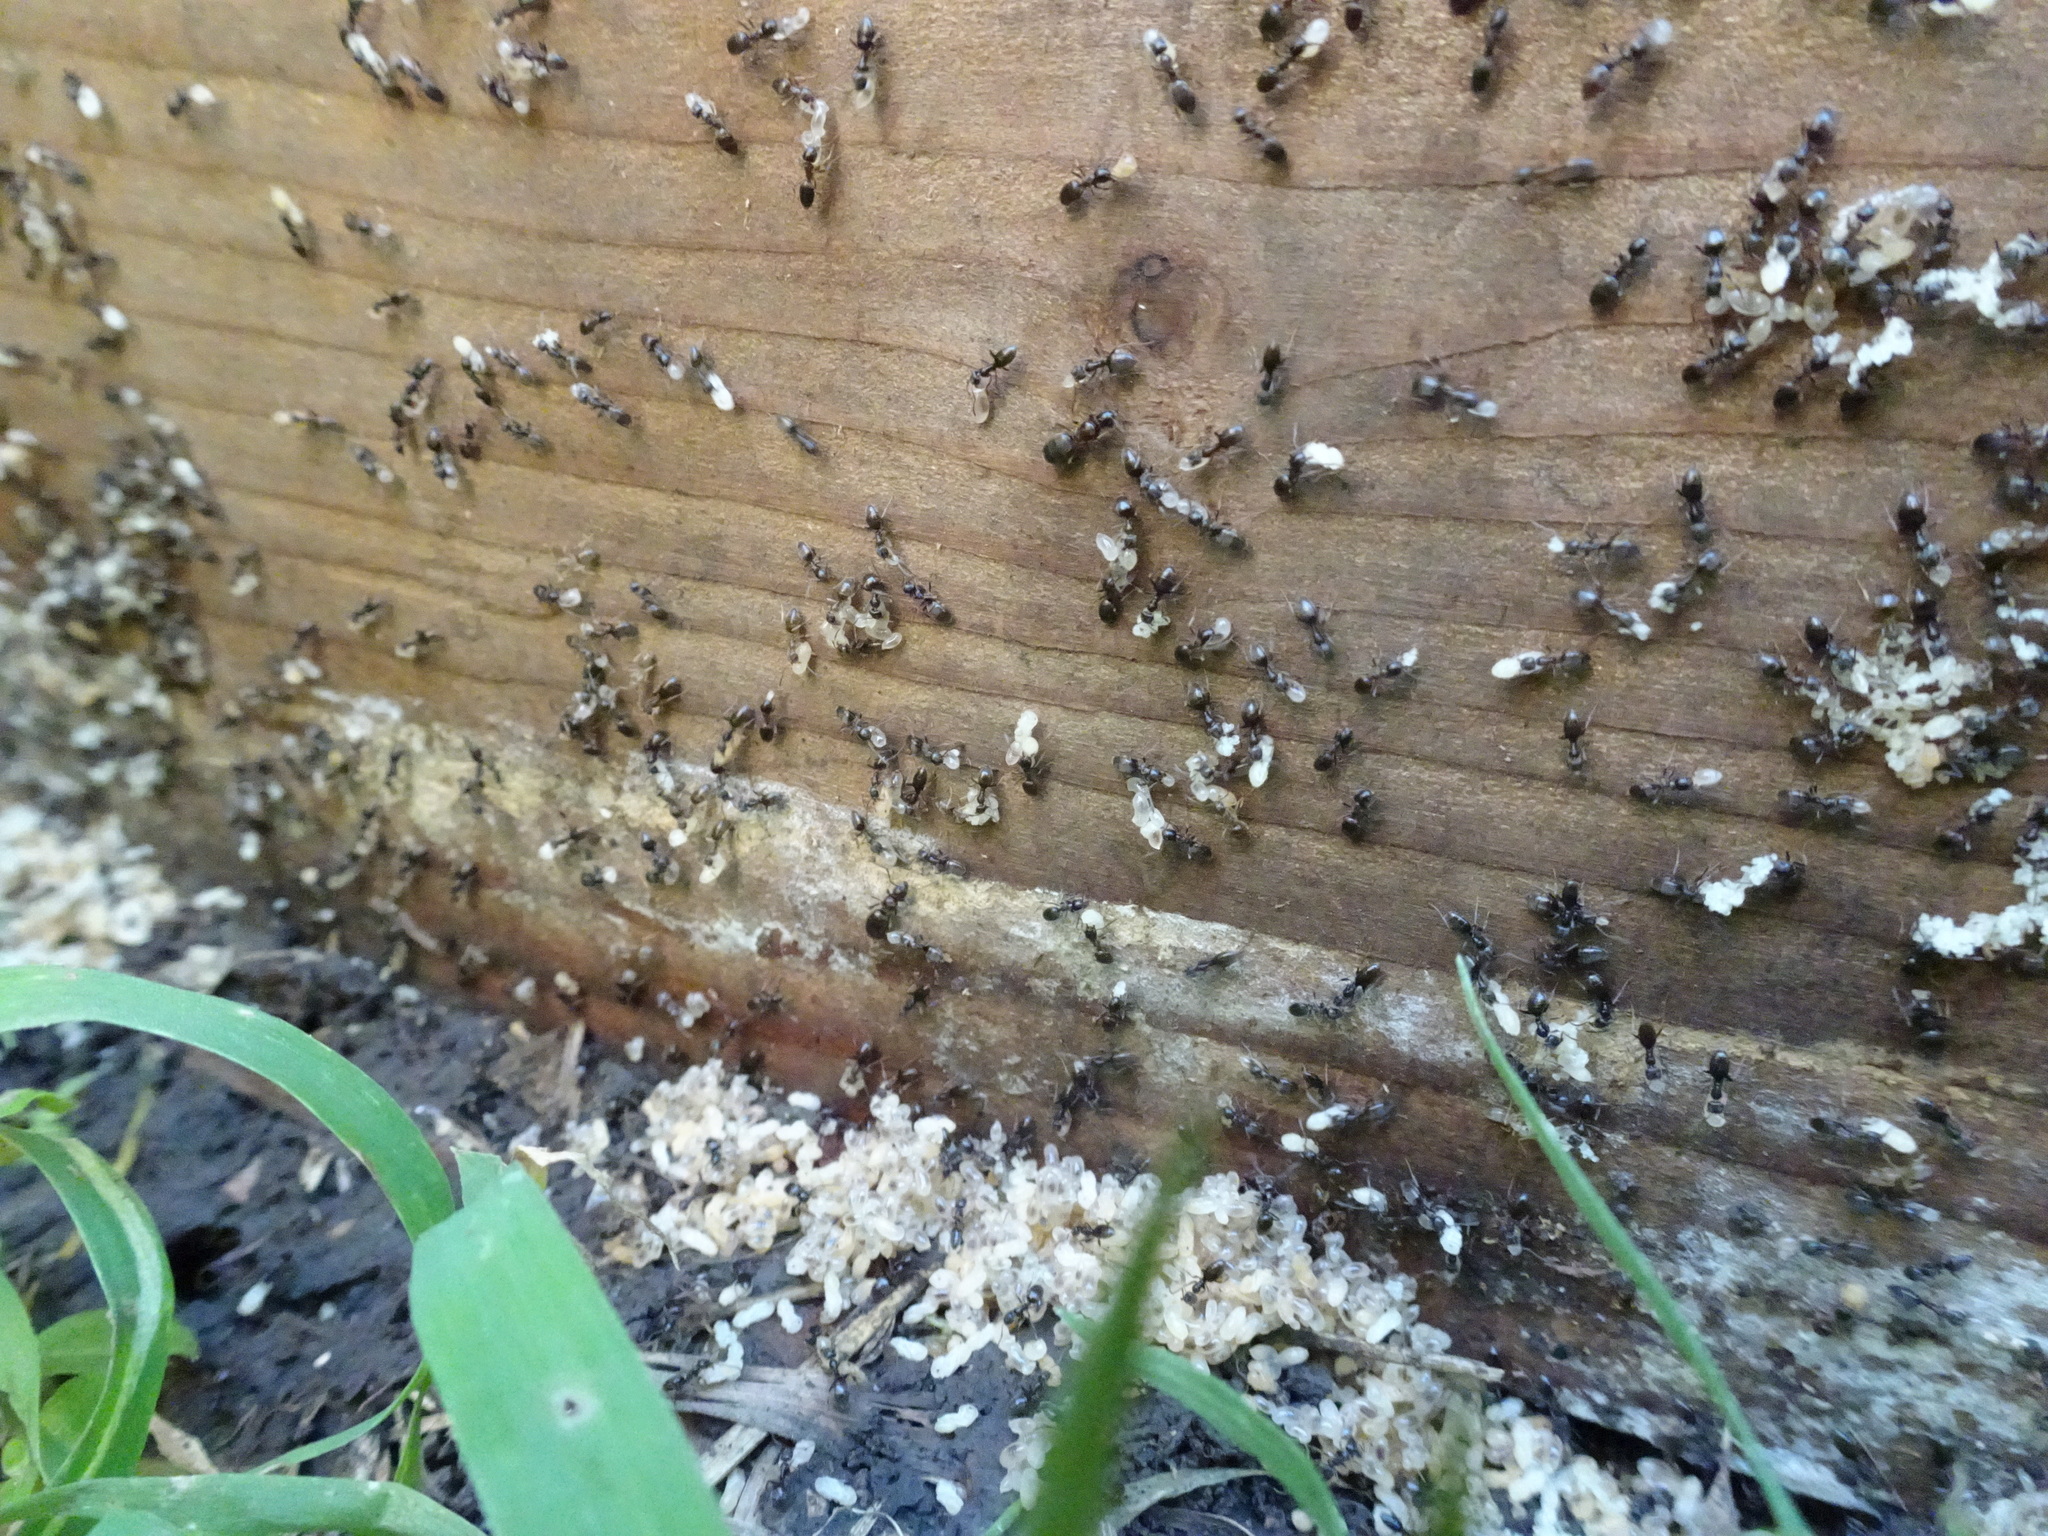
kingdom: Animalia
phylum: Arthropoda
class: Insecta
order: Hymenoptera
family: Formicidae
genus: Tapinoma
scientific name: Tapinoma sessile
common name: Odorous house ant
